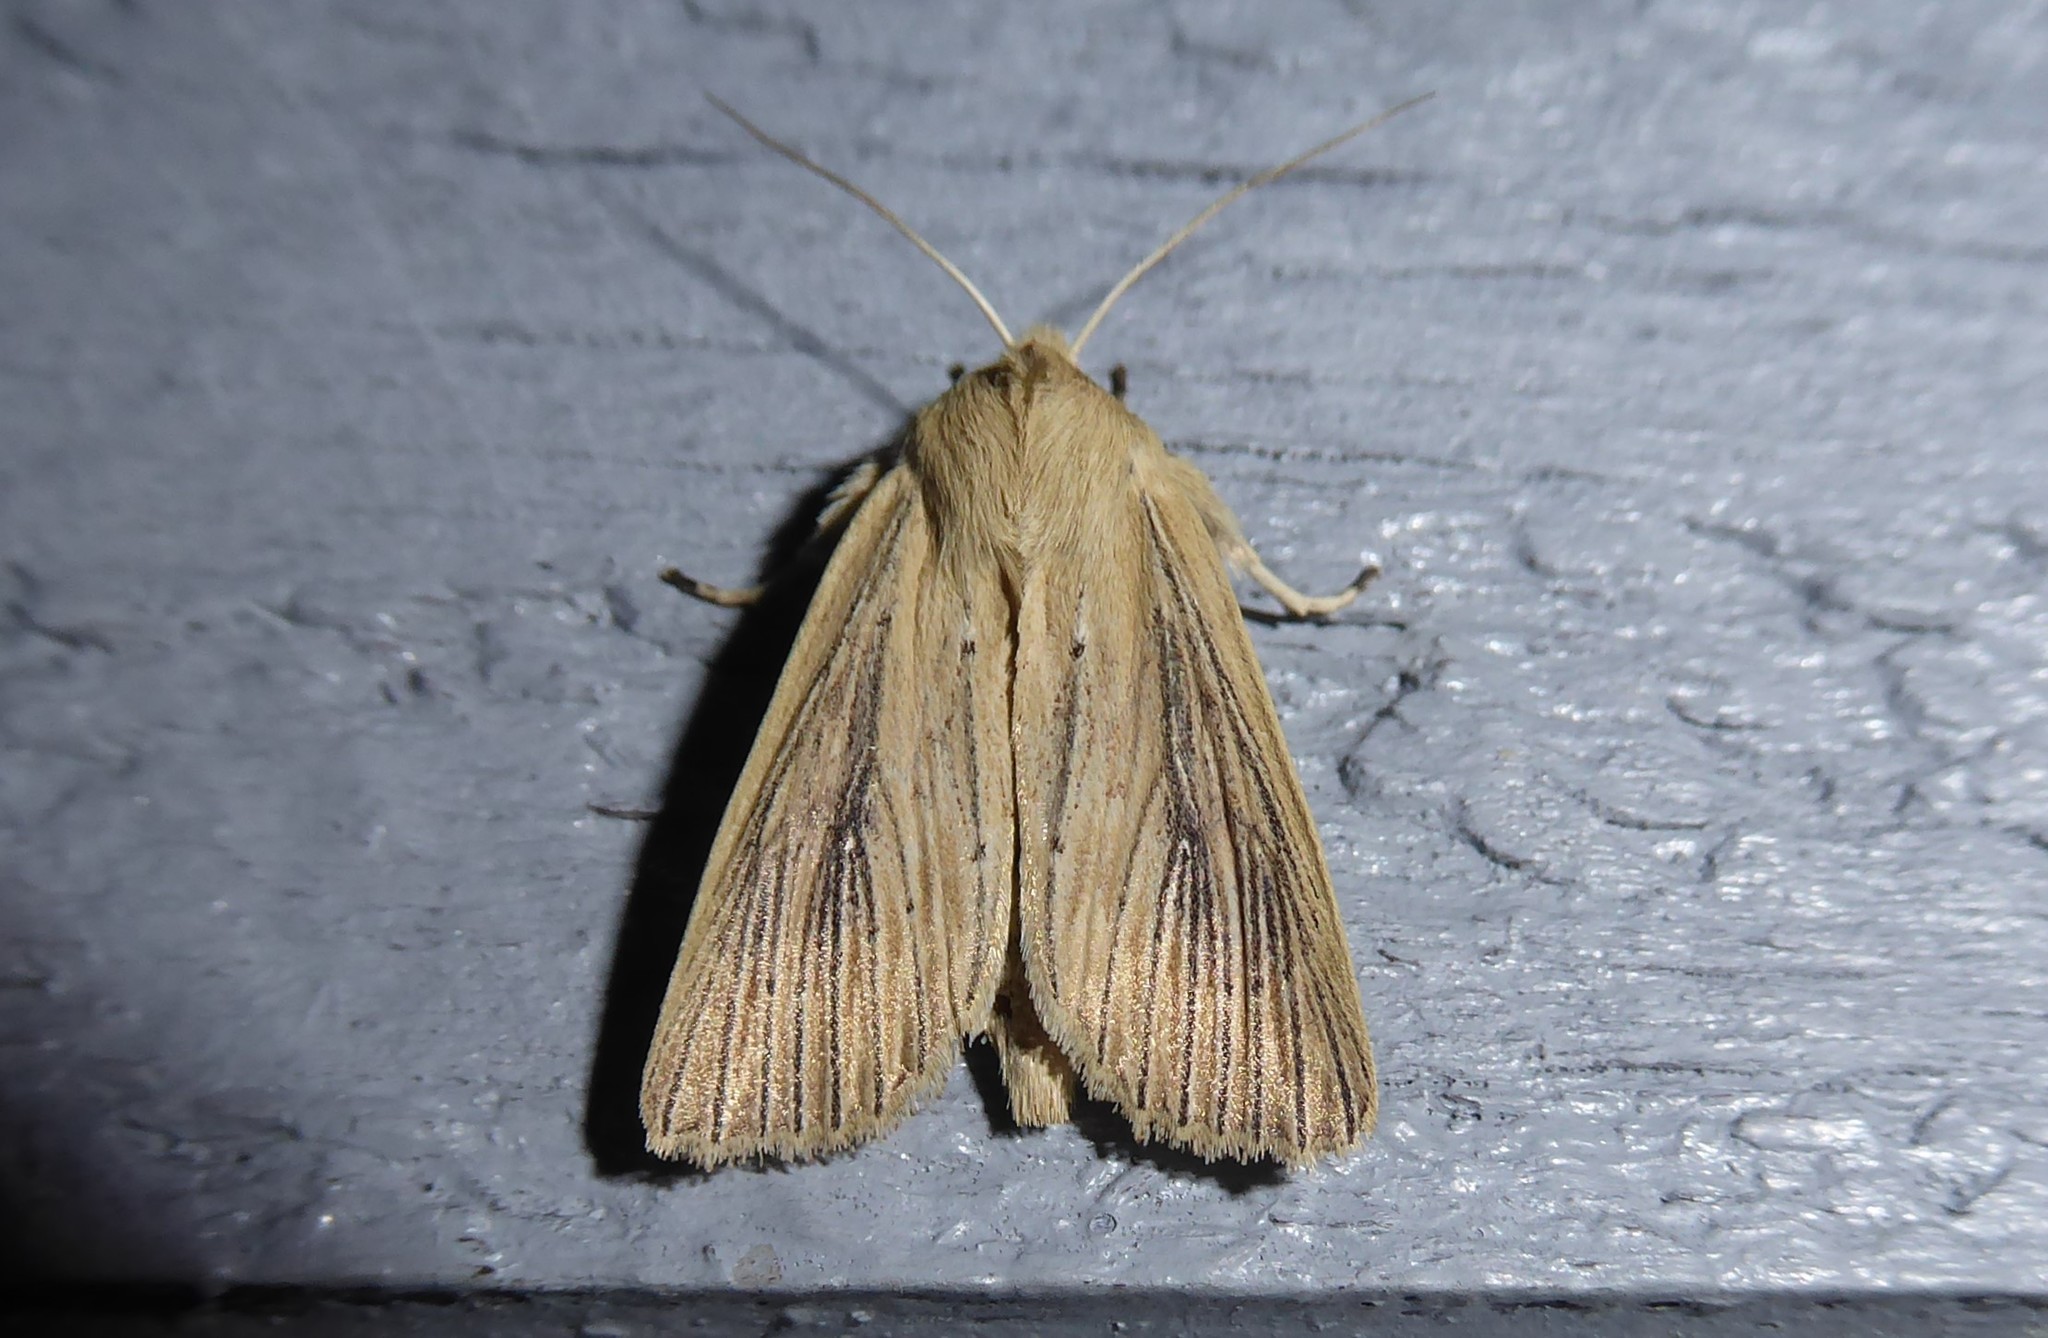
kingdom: Animalia
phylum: Arthropoda
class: Insecta
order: Lepidoptera
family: Noctuidae
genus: Ichneutica
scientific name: Ichneutica arotis
